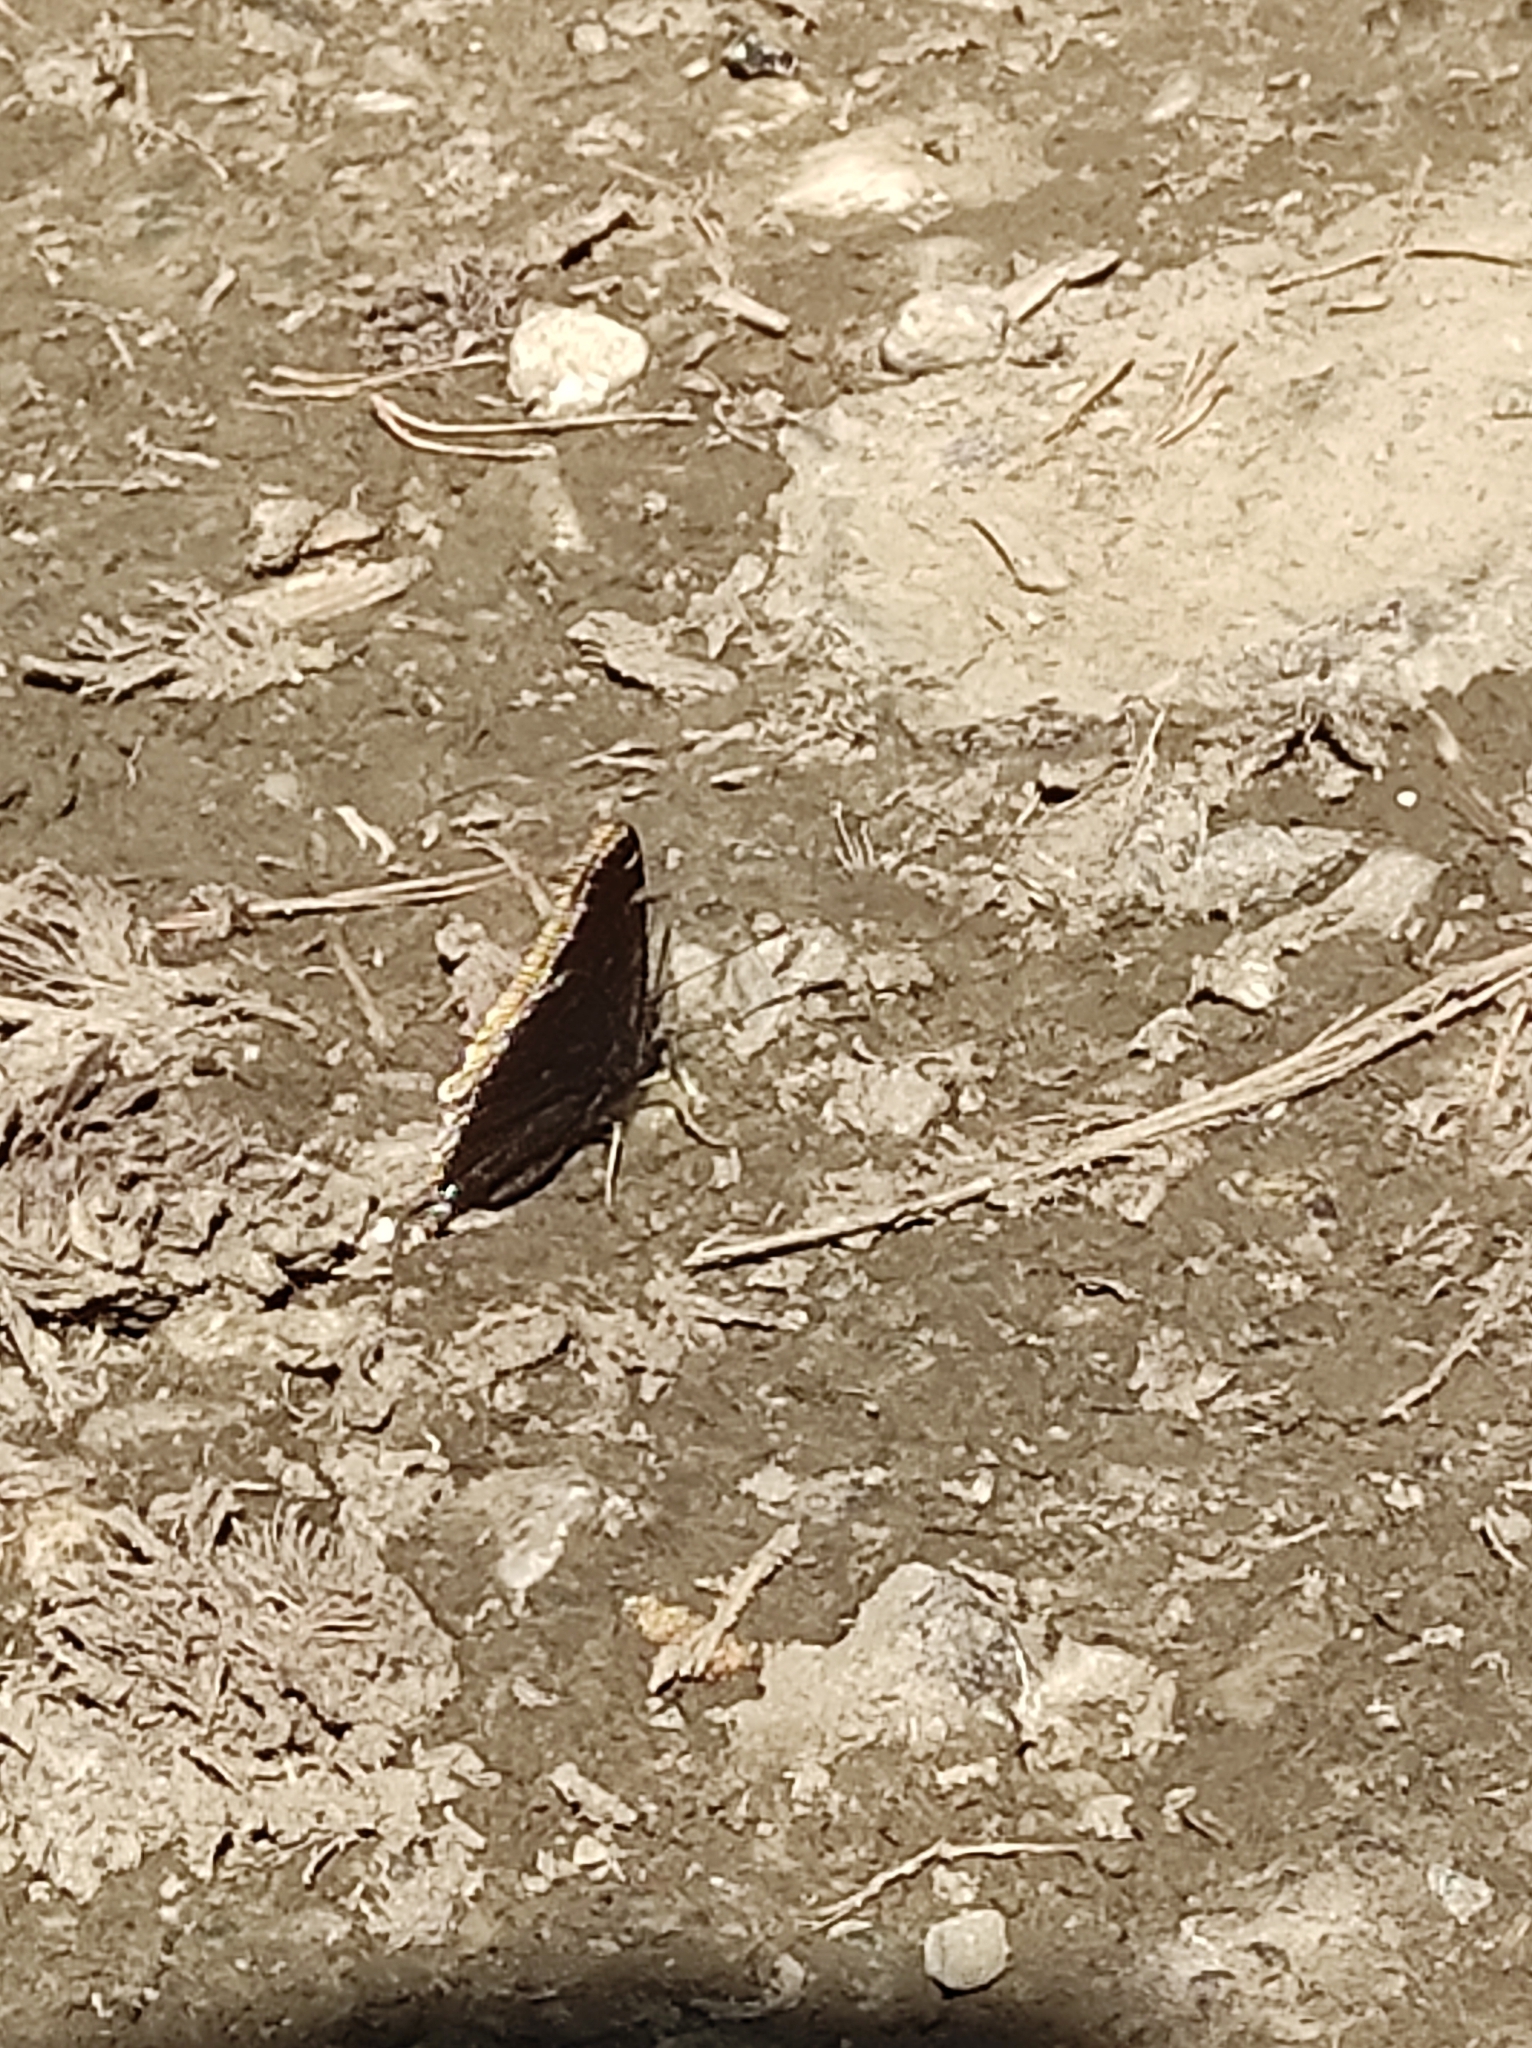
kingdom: Animalia
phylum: Arthropoda
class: Insecta
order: Lepidoptera
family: Nymphalidae
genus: Nymphalis
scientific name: Nymphalis antiopa
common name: Camberwell beauty
